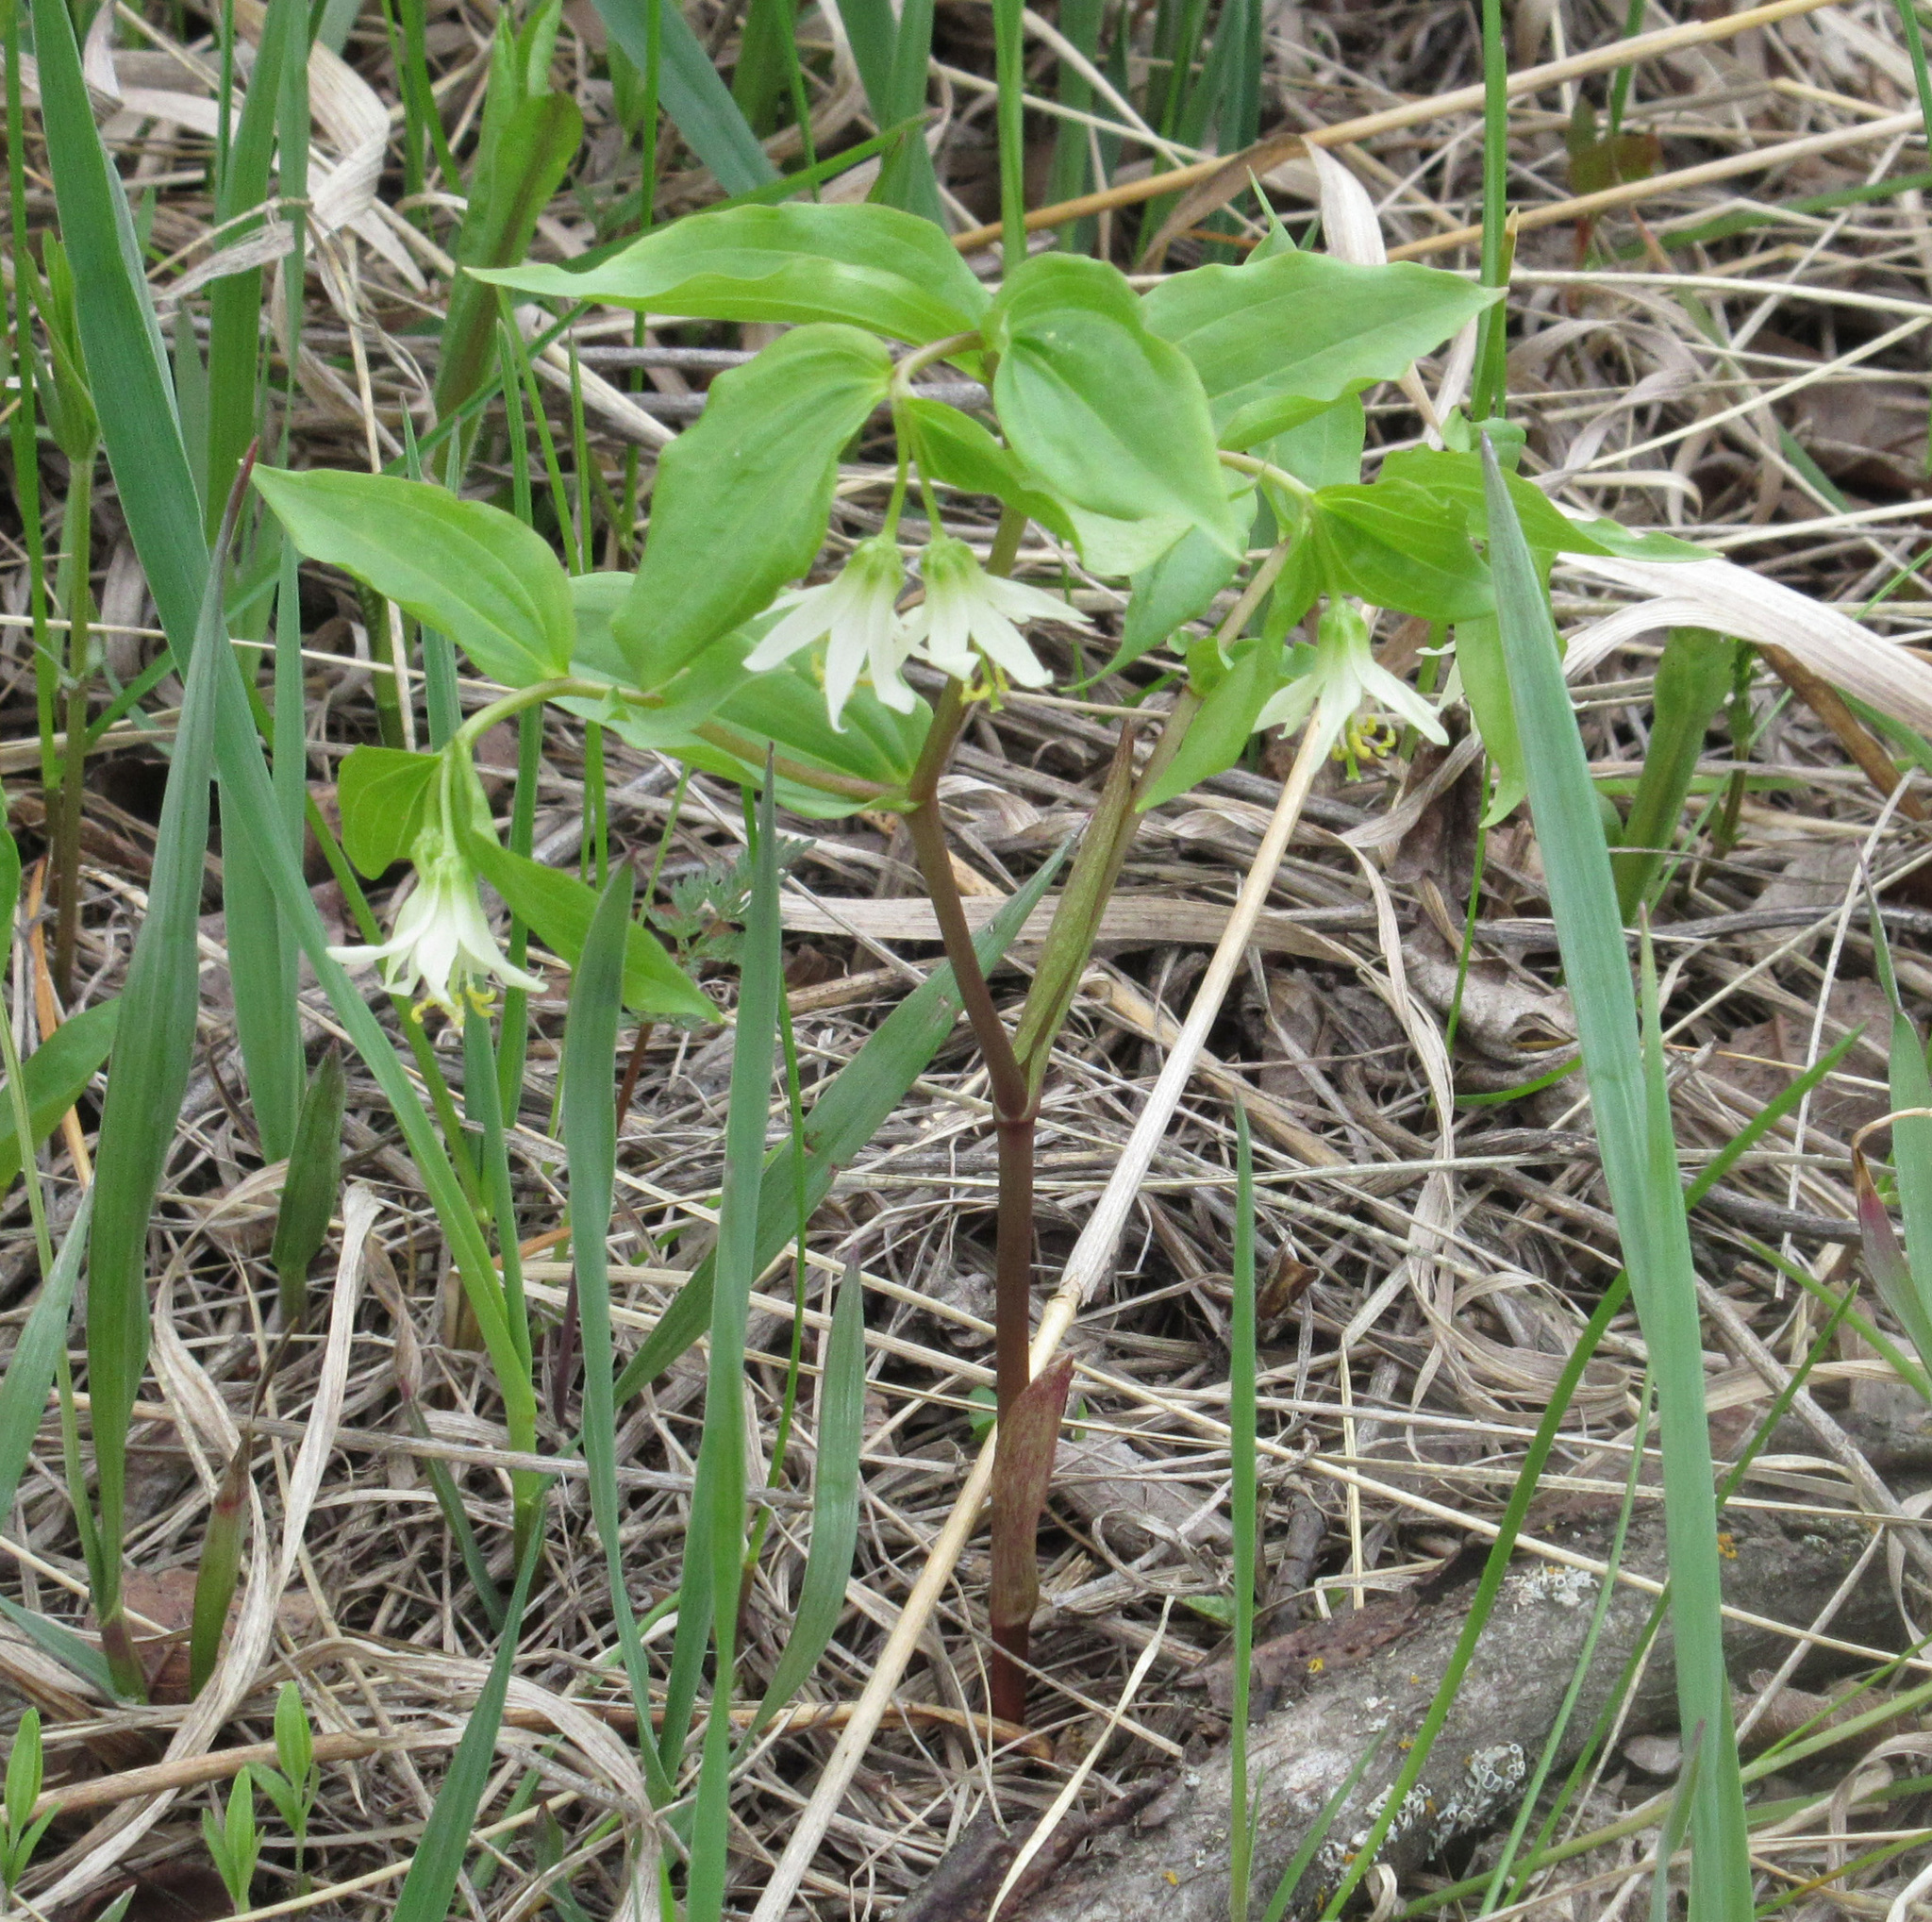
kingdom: Plantae
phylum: Tracheophyta
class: Liliopsida
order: Liliales
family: Liliaceae
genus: Prosartes
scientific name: Prosartes trachycarpa
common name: Rough-fruit fairy-bells
